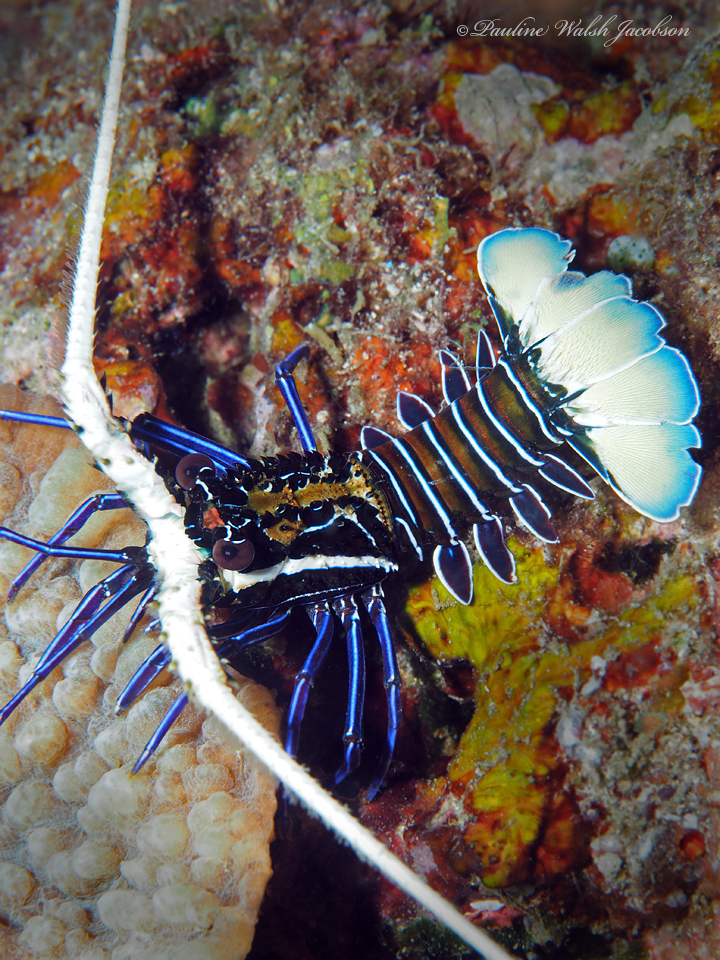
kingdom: Animalia
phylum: Arthropoda
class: Malacostraca
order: Decapoda
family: Palinuridae
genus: Panulirus
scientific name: Panulirus versicolor
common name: Painted spiny lobster
